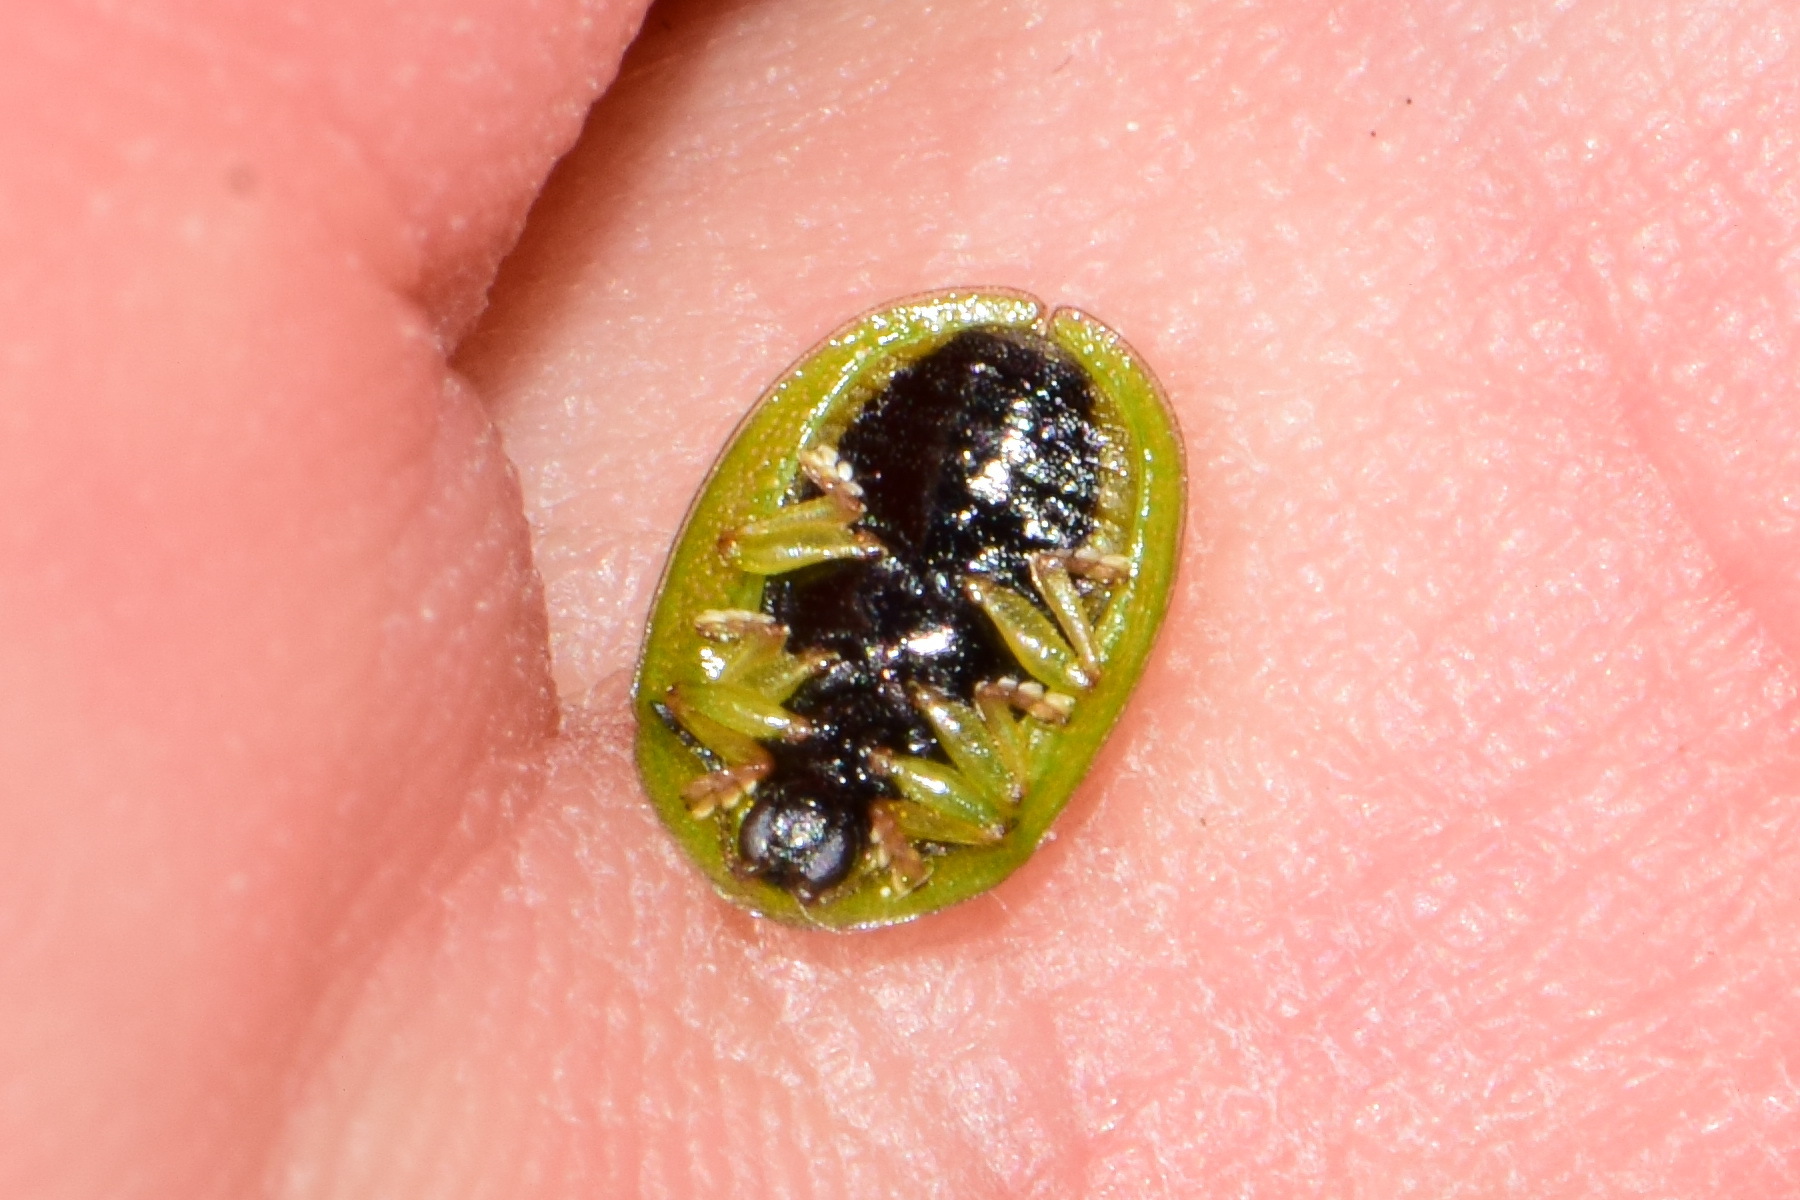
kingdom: Animalia
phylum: Arthropoda
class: Insecta
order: Coleoptera
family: Chrysomelidae
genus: Cassida
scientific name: Cassida stigmatica
